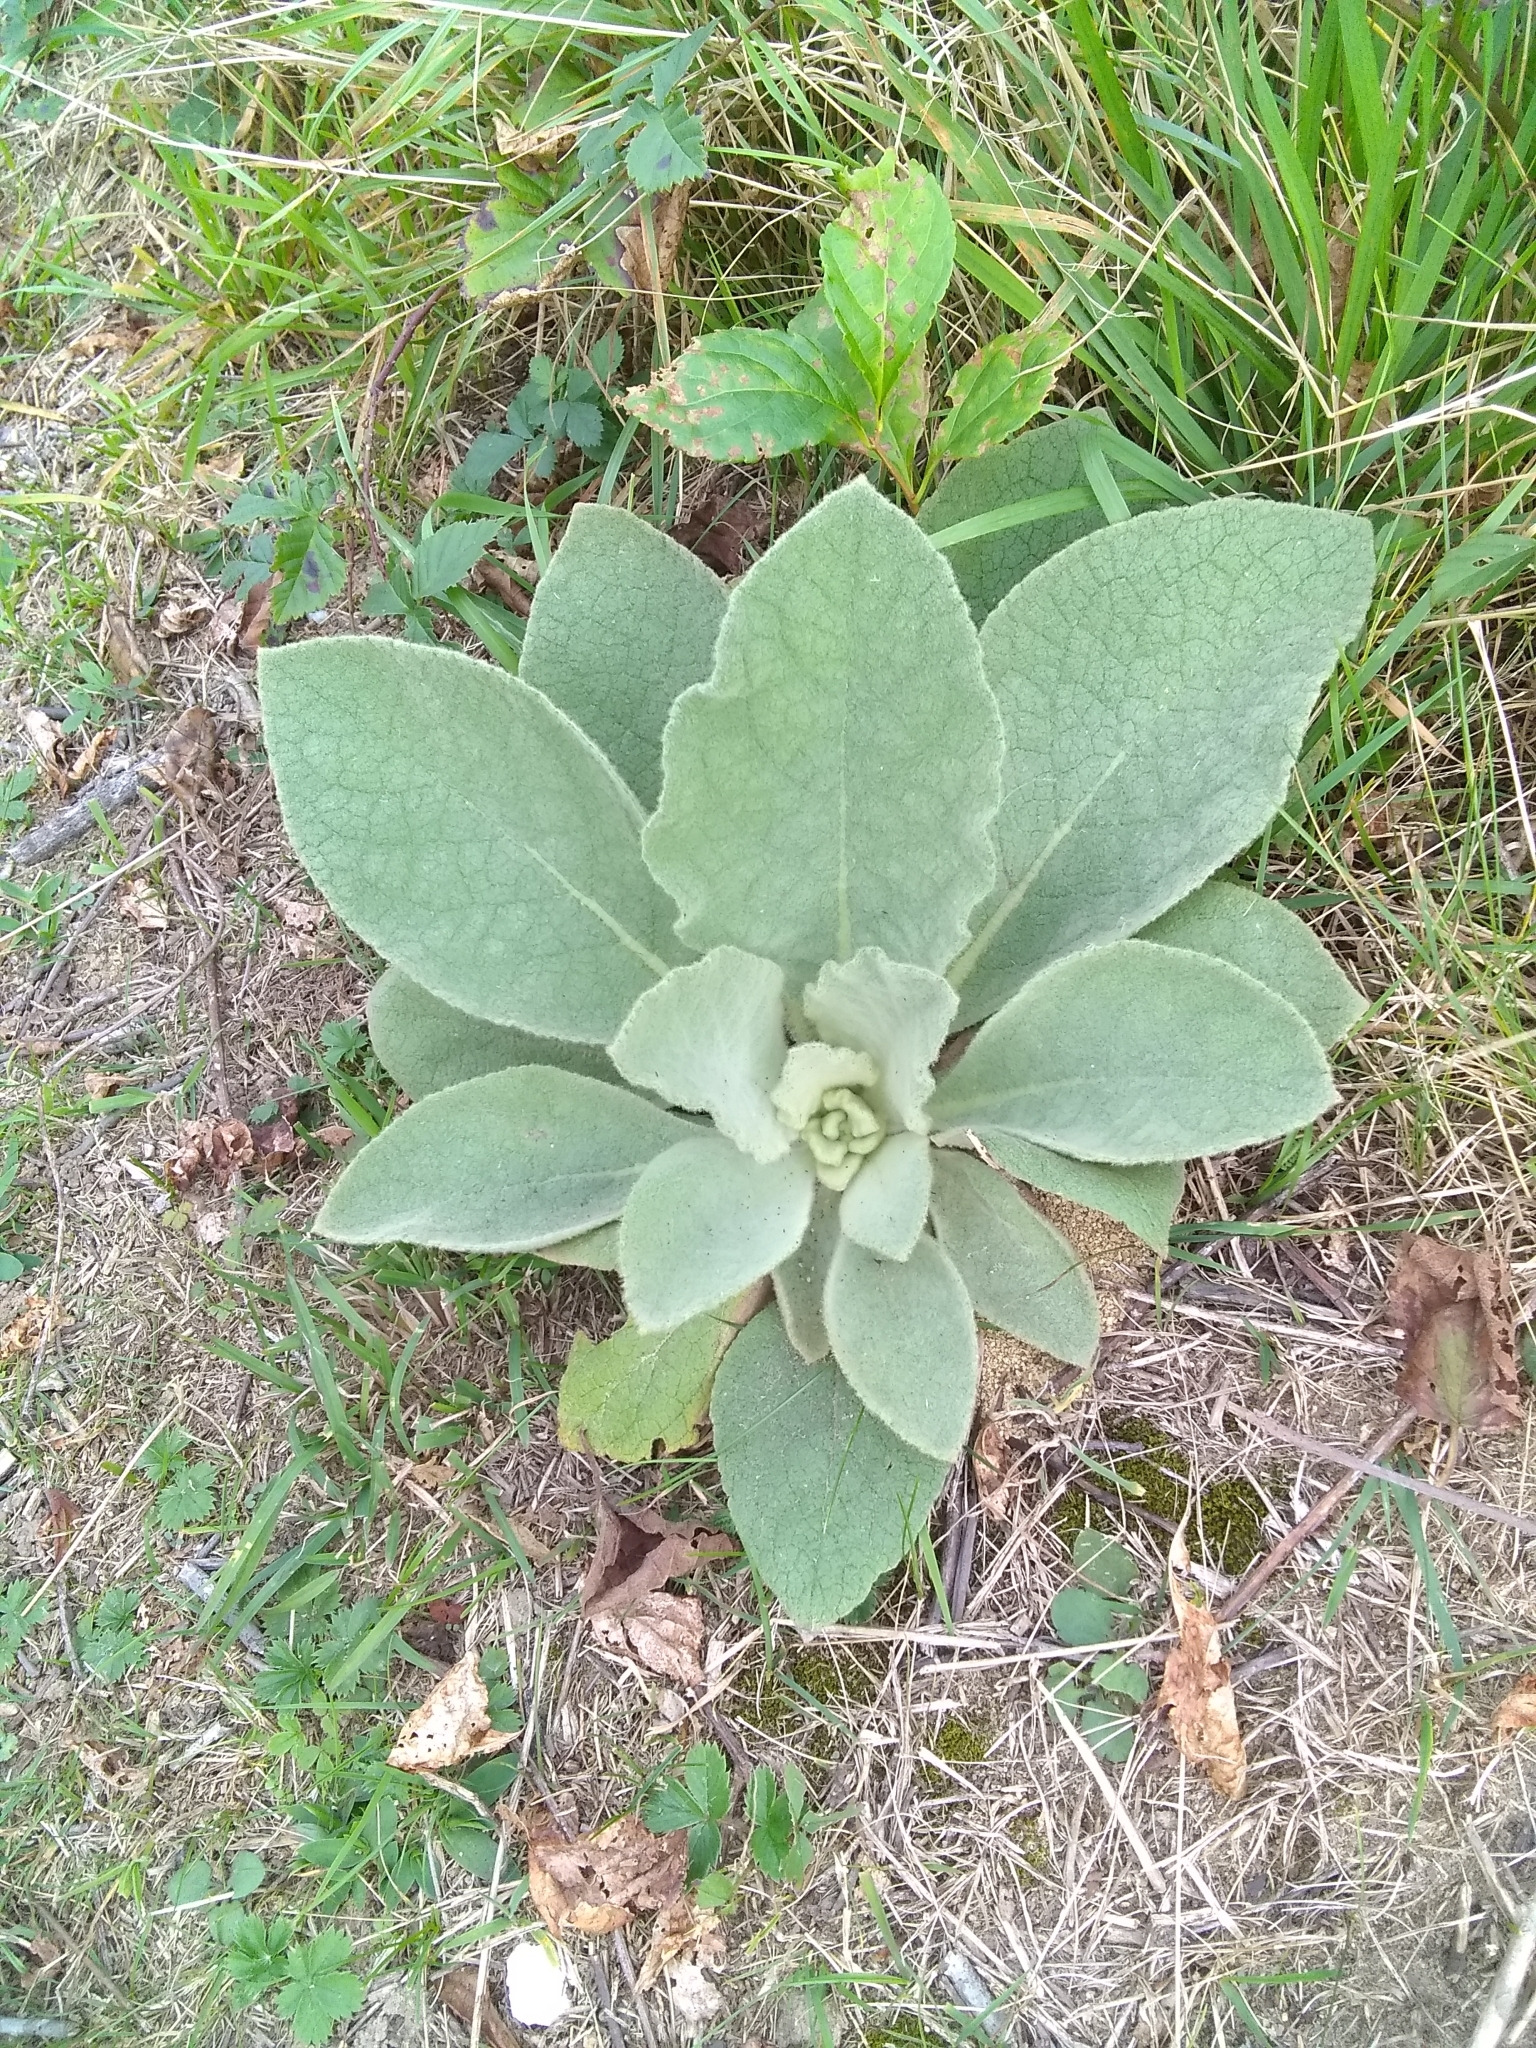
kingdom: Plantae
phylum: Tracheophyta
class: Magnoliopsida
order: Lamiales
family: Scrophulariaceae
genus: Verbascum
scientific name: Verbascum thapsus
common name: Common mullein
